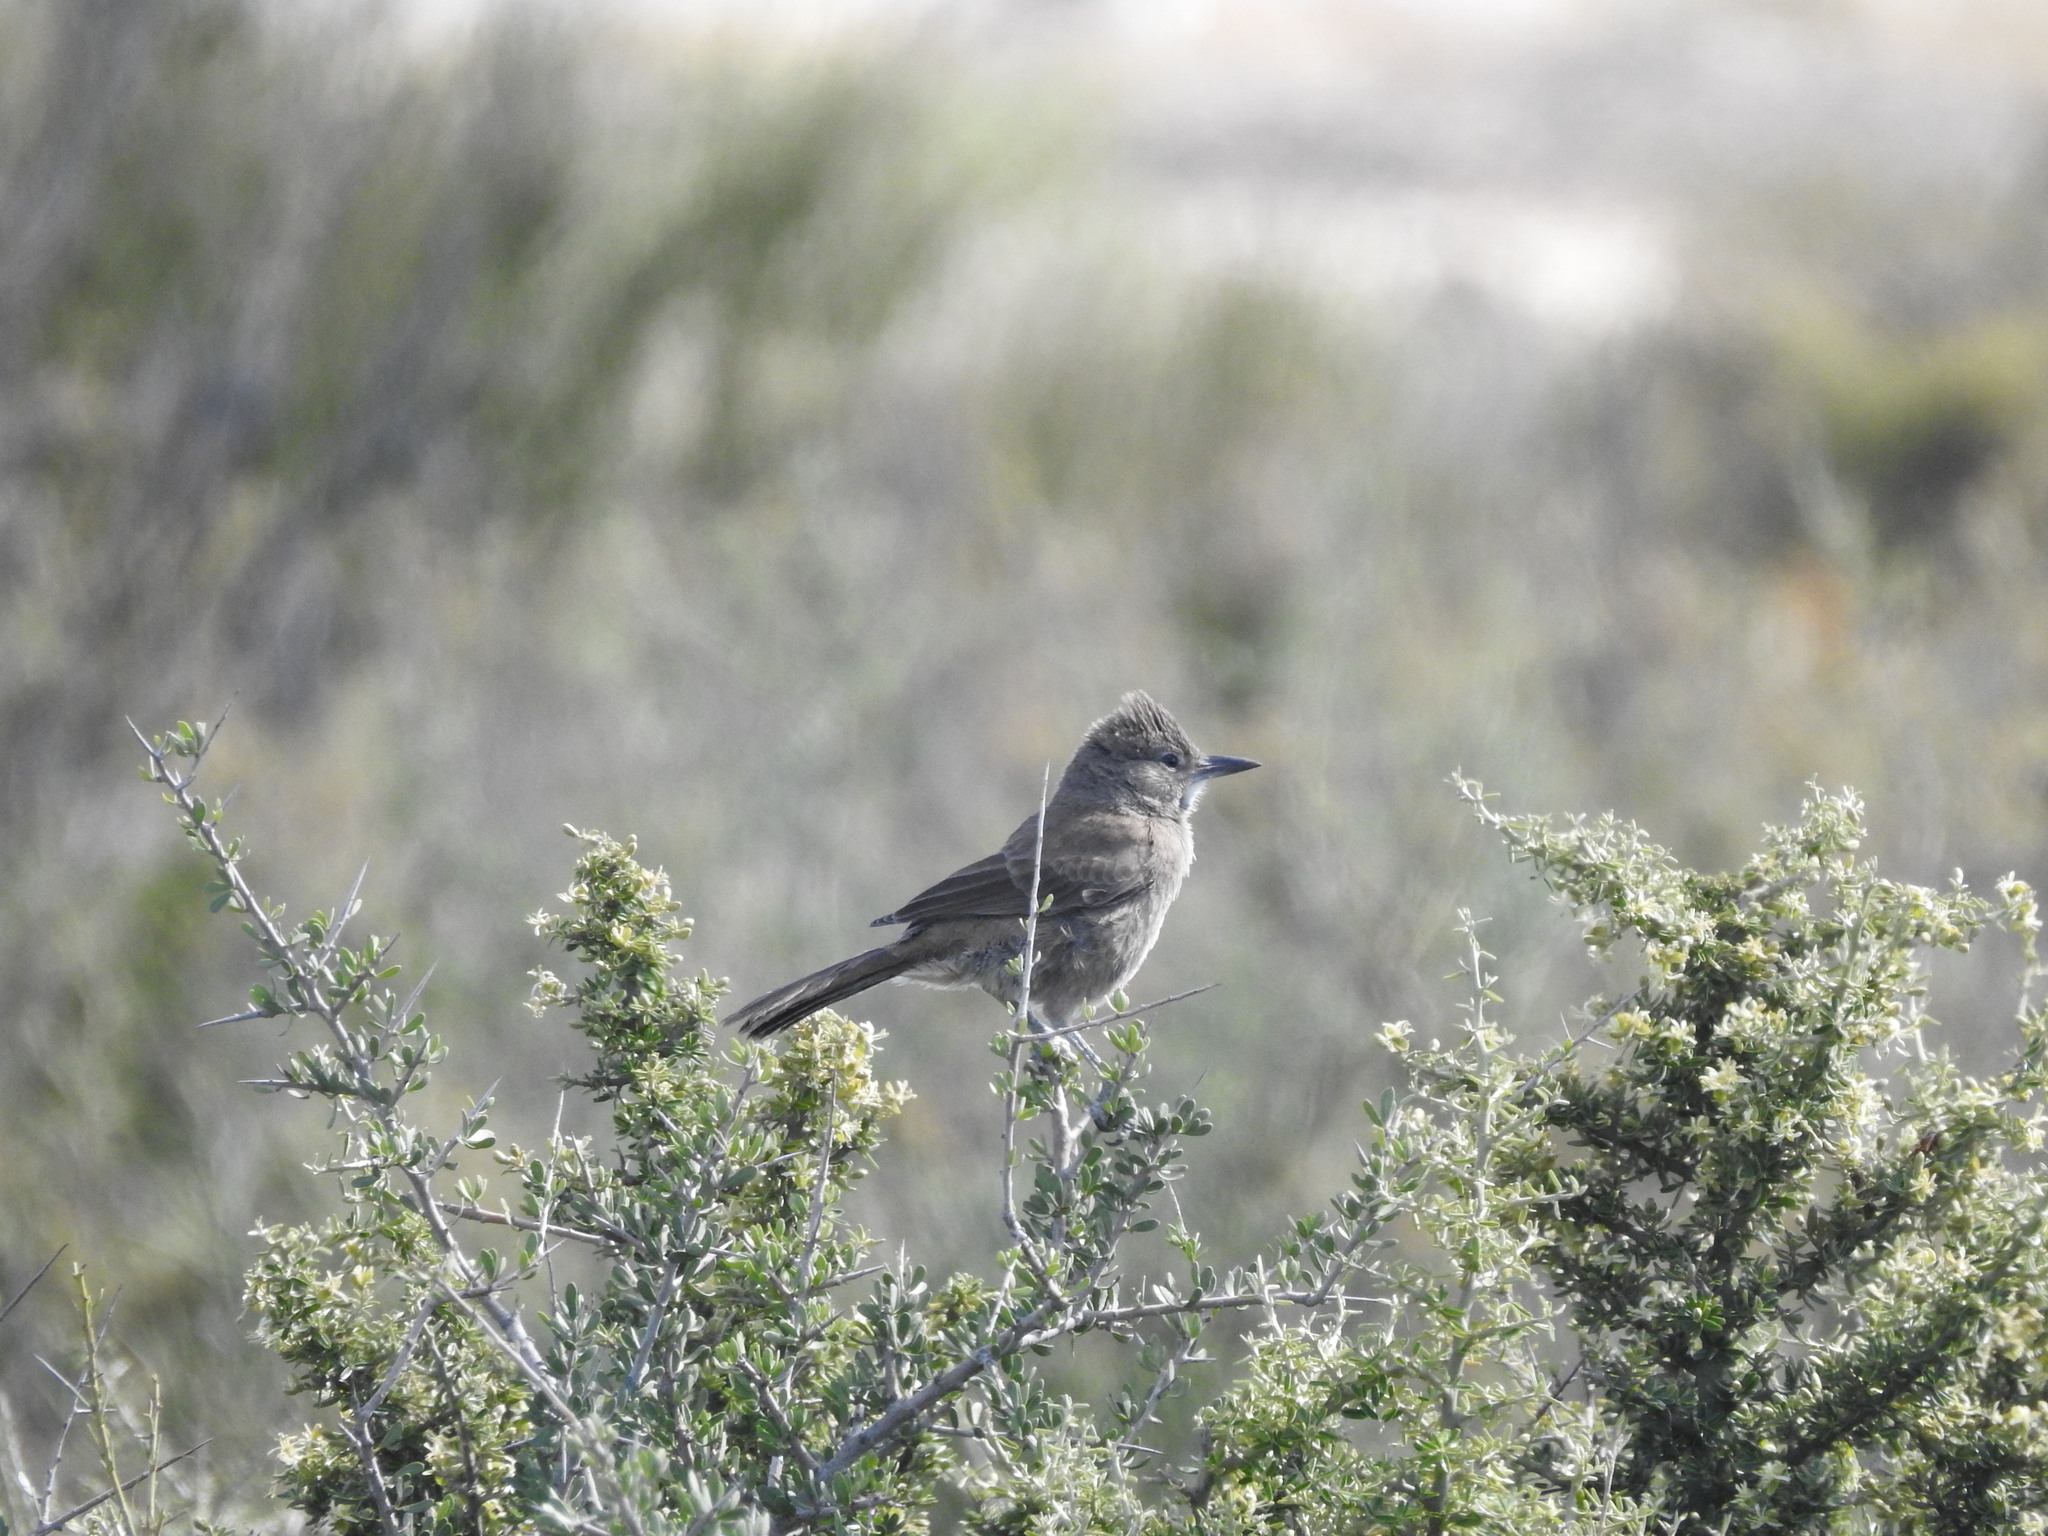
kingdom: Animalia
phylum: Chordata
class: Aves
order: Passeriformes
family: Furnariidae
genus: Pseudoseisura
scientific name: Pseudoseisura gutturalis
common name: White-throated cacholote
